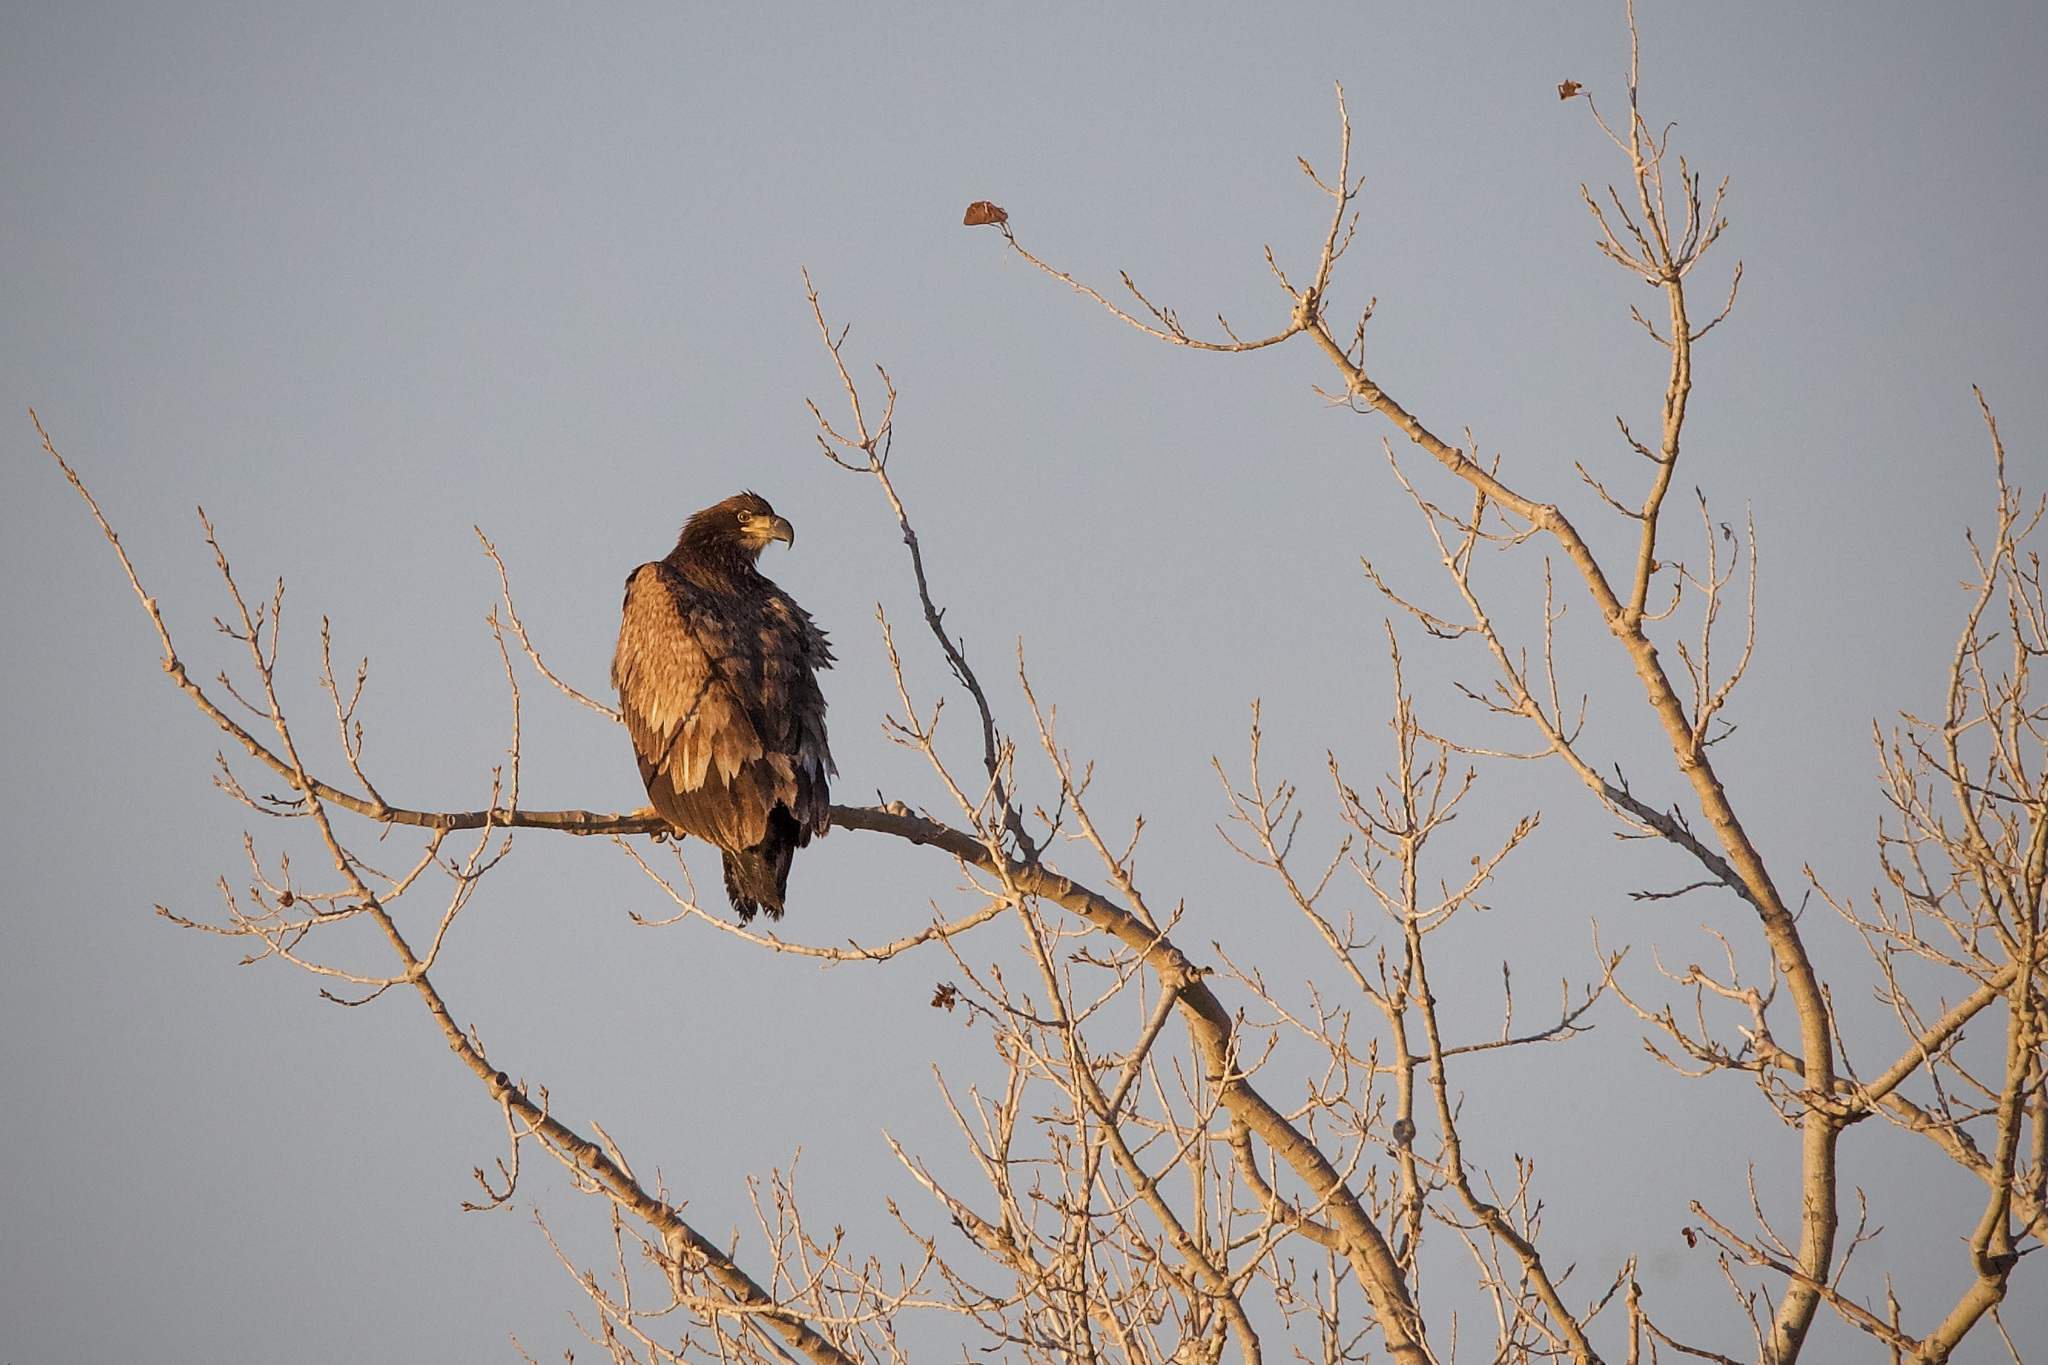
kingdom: Animalia
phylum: Chordata
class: Aves
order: Accipitriformes
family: Accipitridae
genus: Haliaeetus
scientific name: Haliaeetus leucocephalus
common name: Bald eagle
